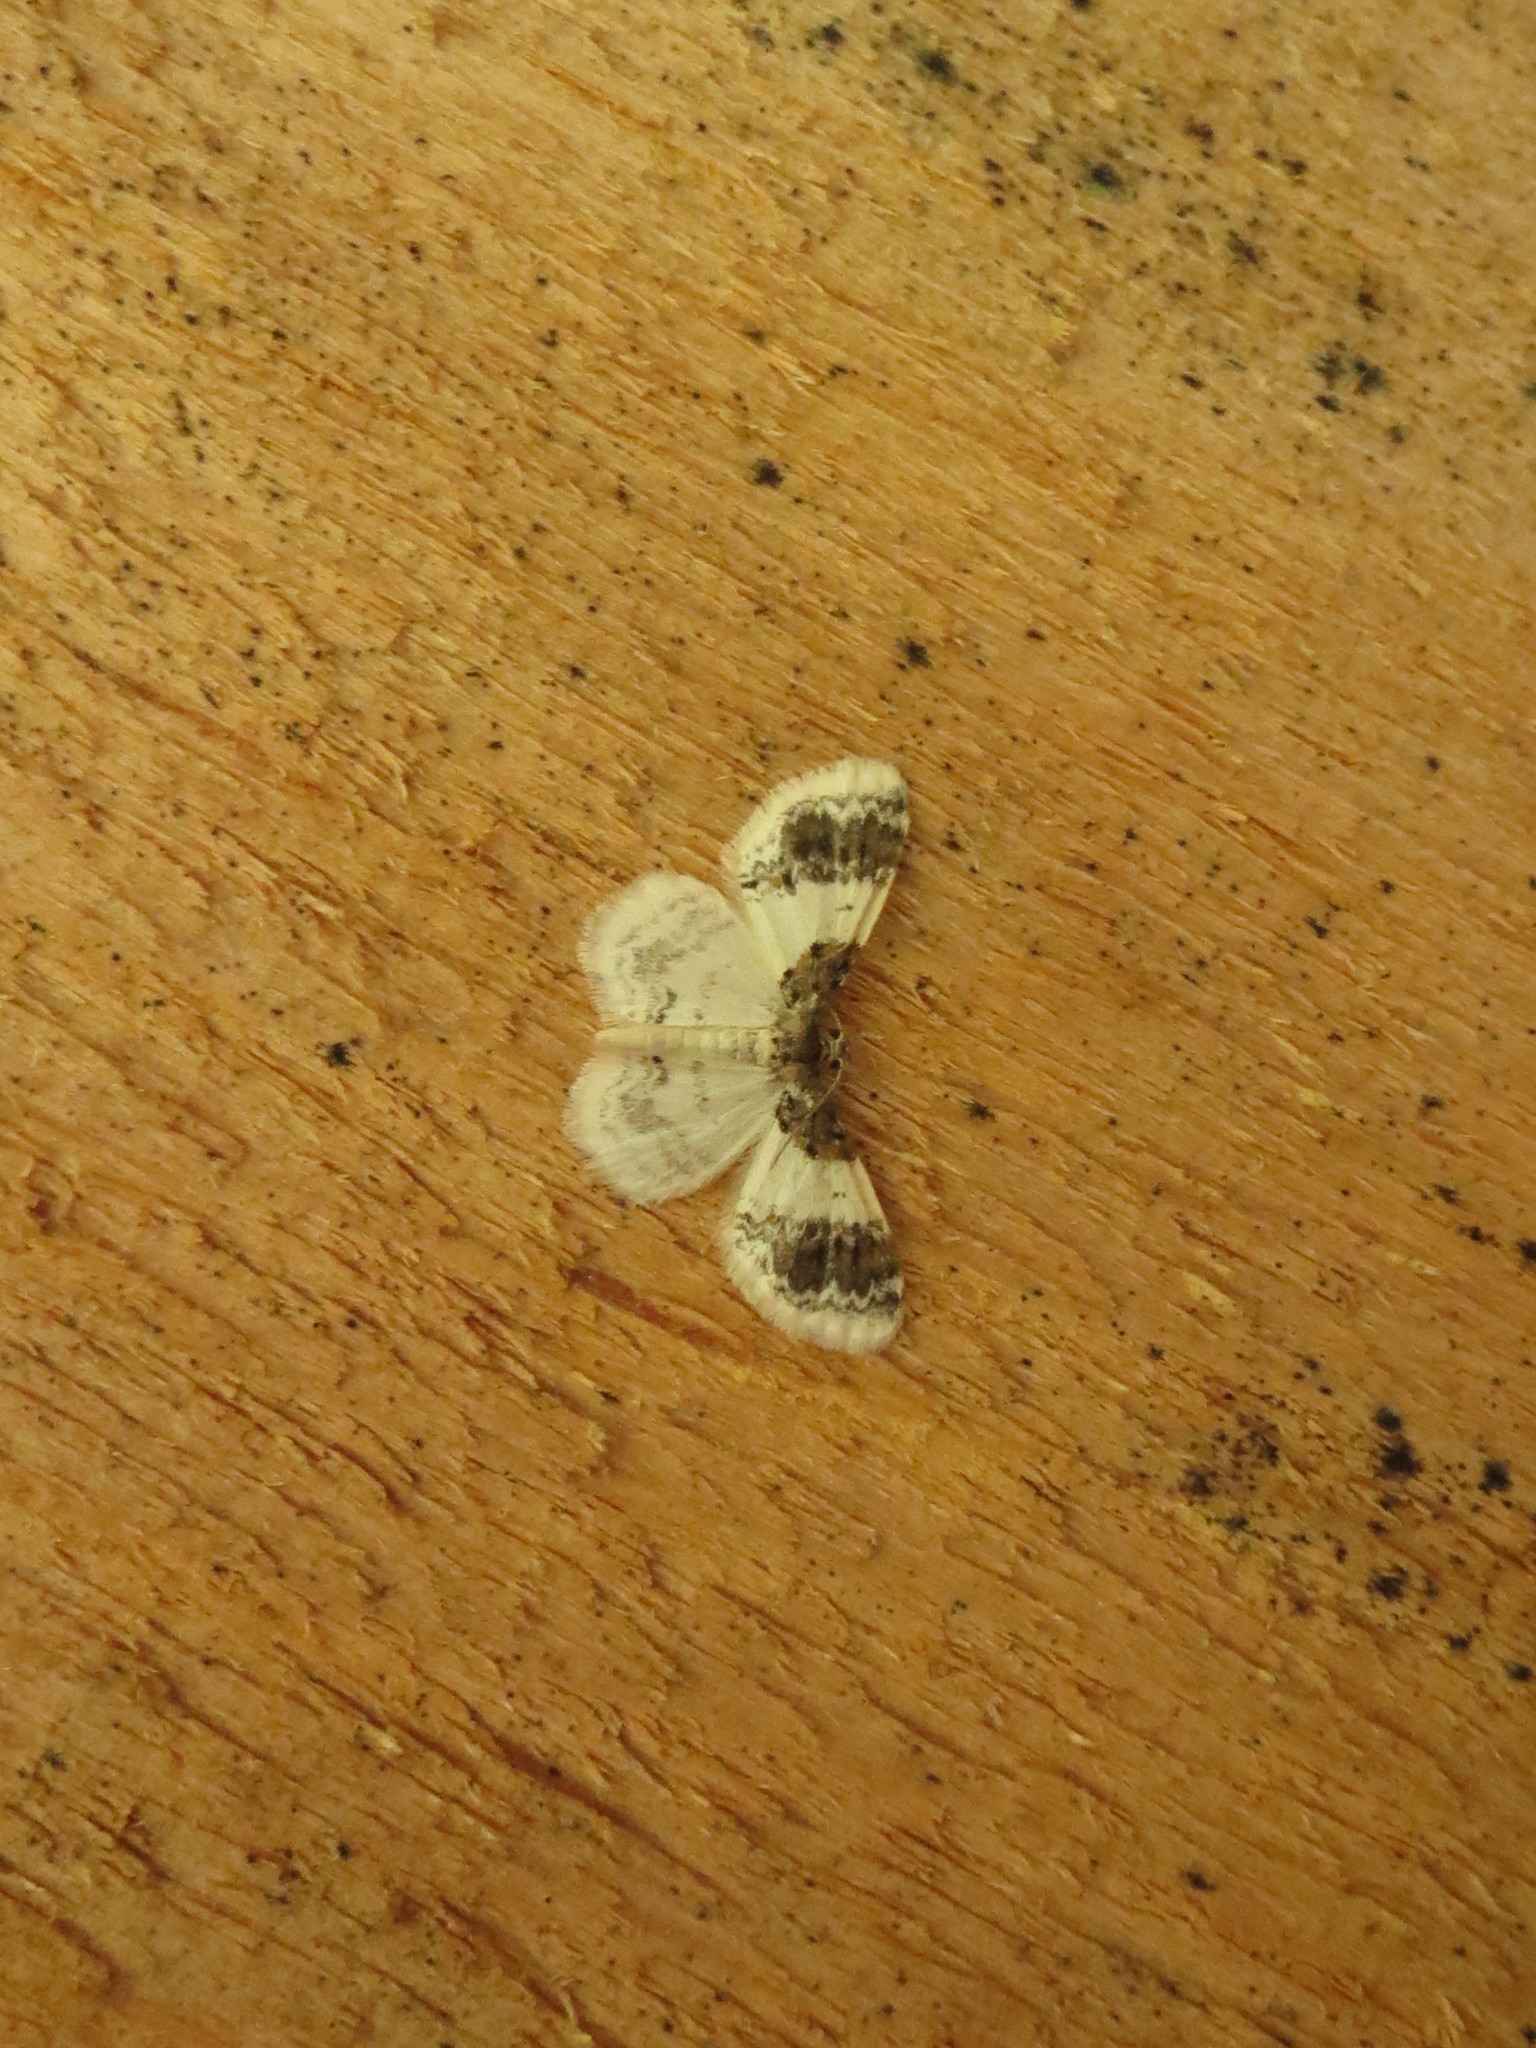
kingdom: Animalia
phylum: Arthropoda
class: Insecta
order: Lepidoptera
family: Geometridae
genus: Hydrelia
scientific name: Hydrelia condensata
